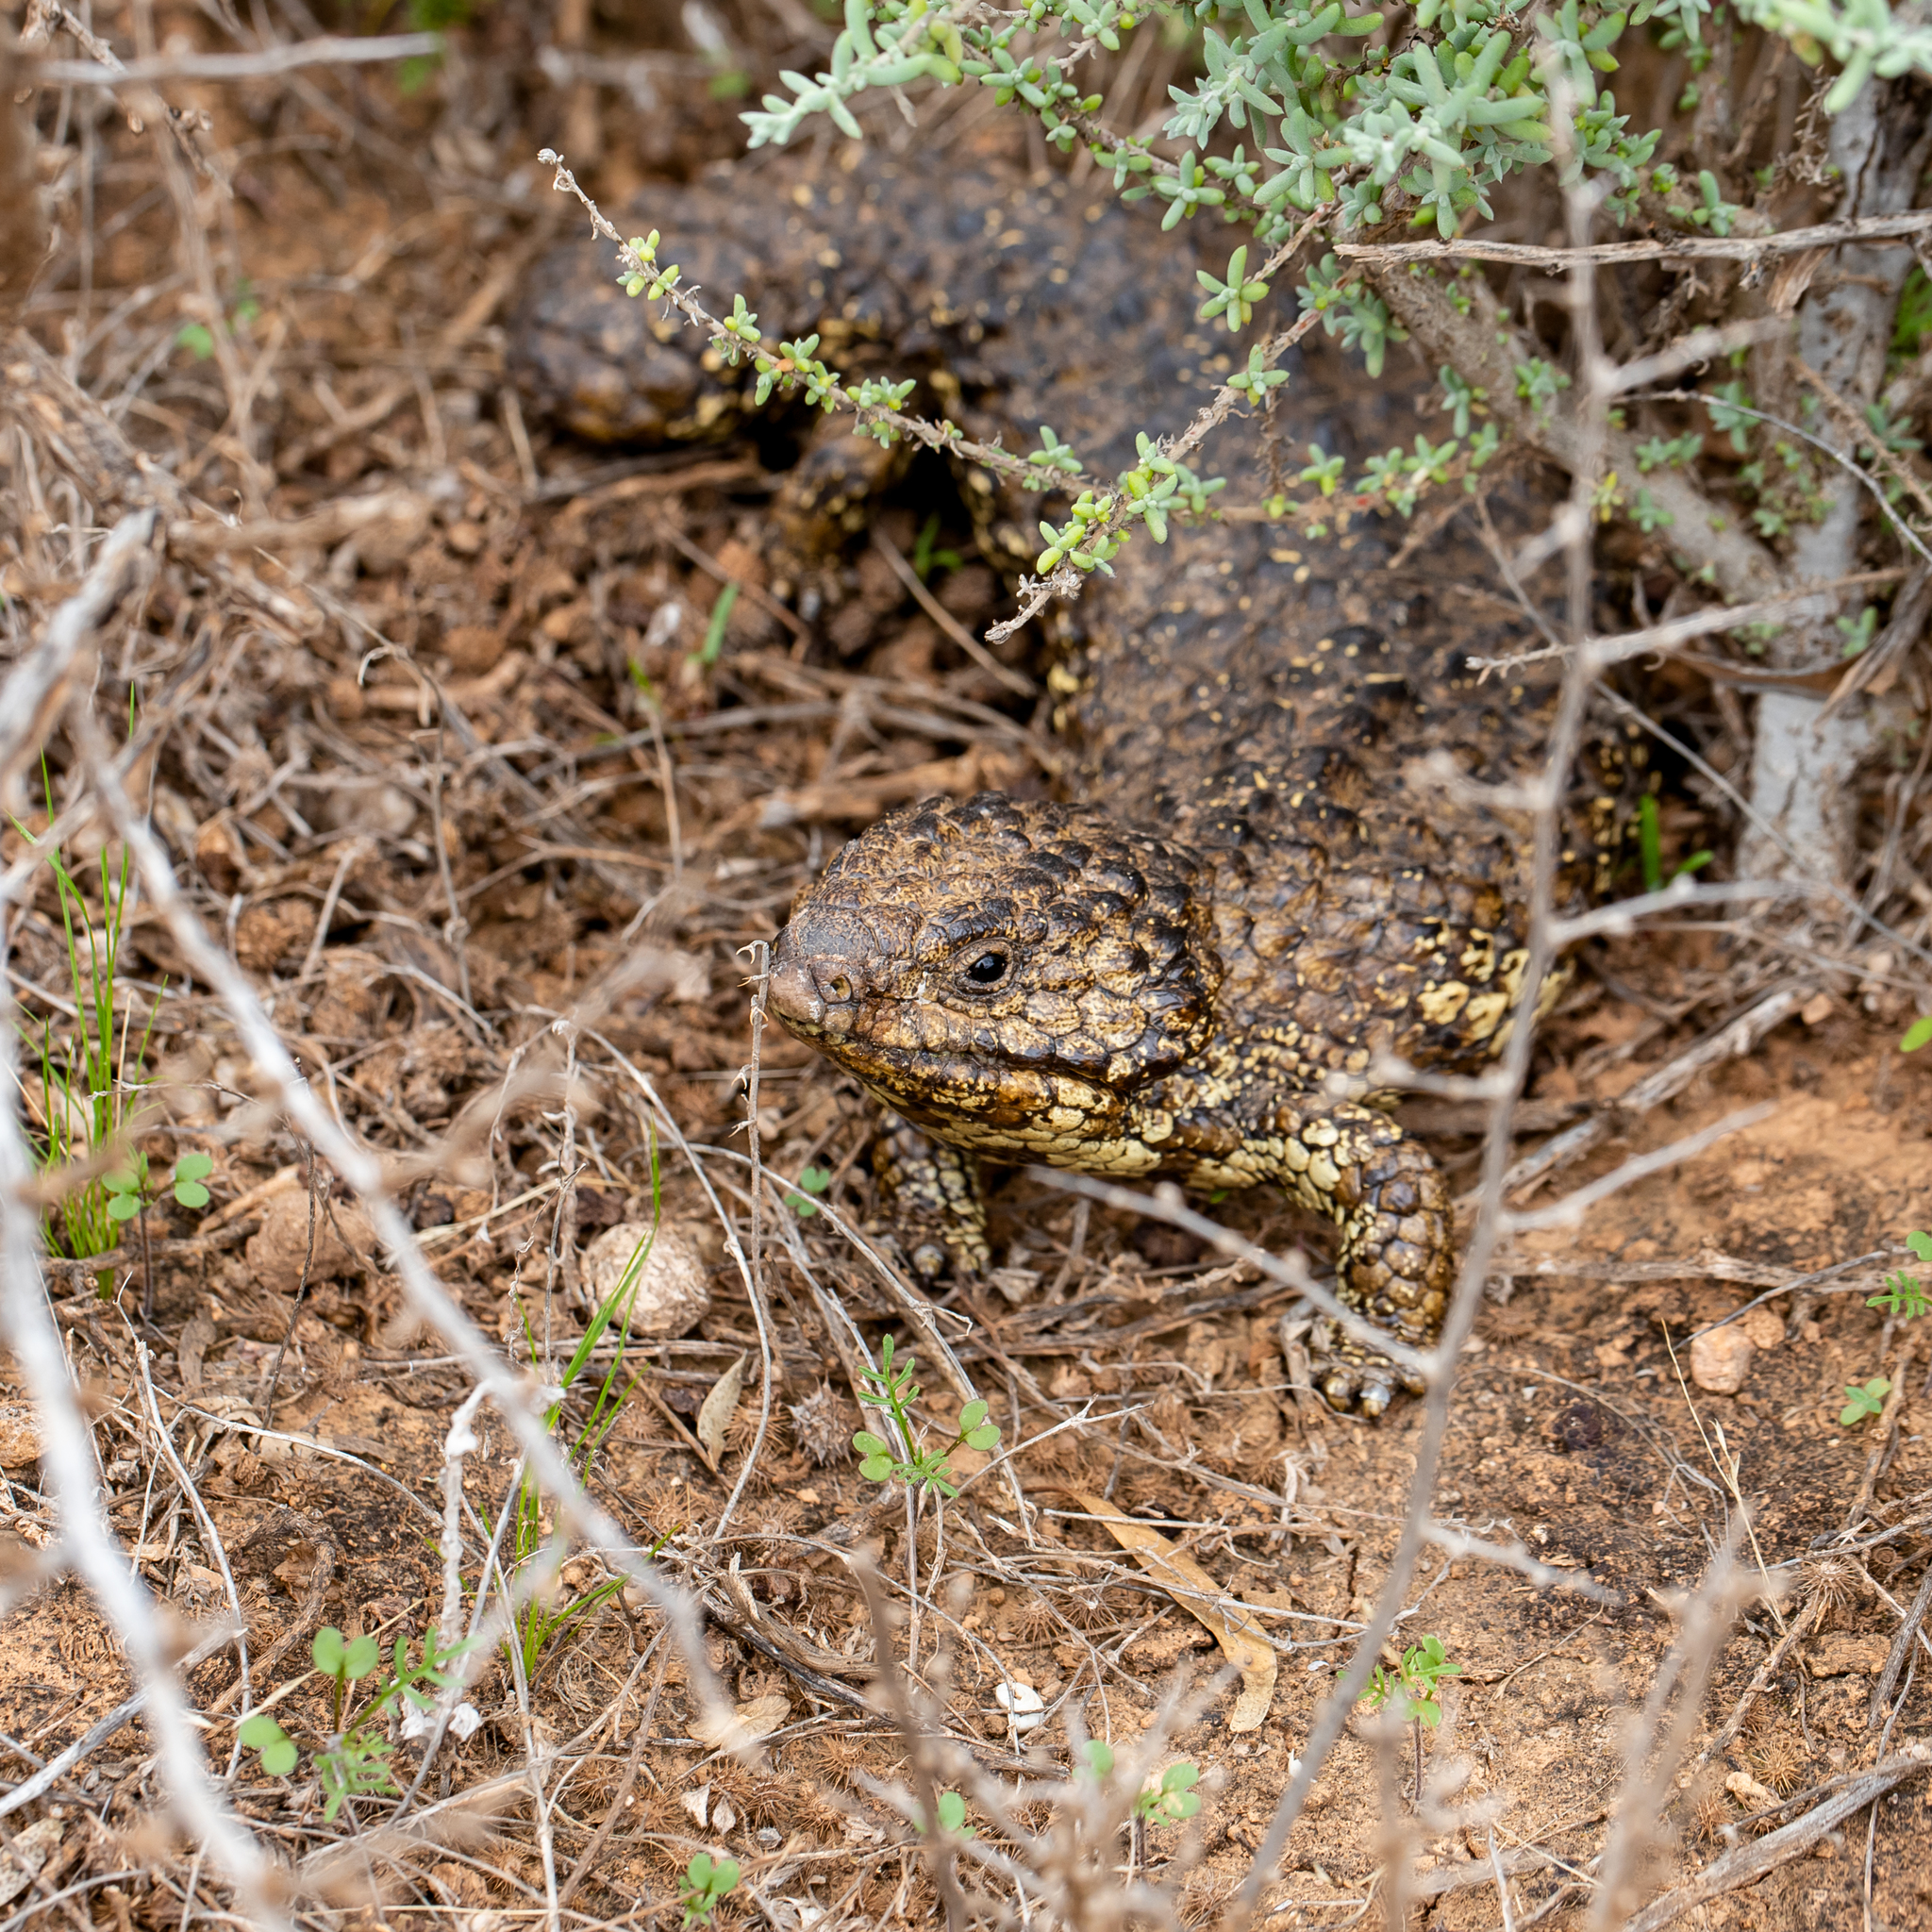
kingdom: Animalia
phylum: Chordata
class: Squamata
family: Scincidae
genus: Tiliqua
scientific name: Tiliqua rugosa
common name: Pinecone lizard
